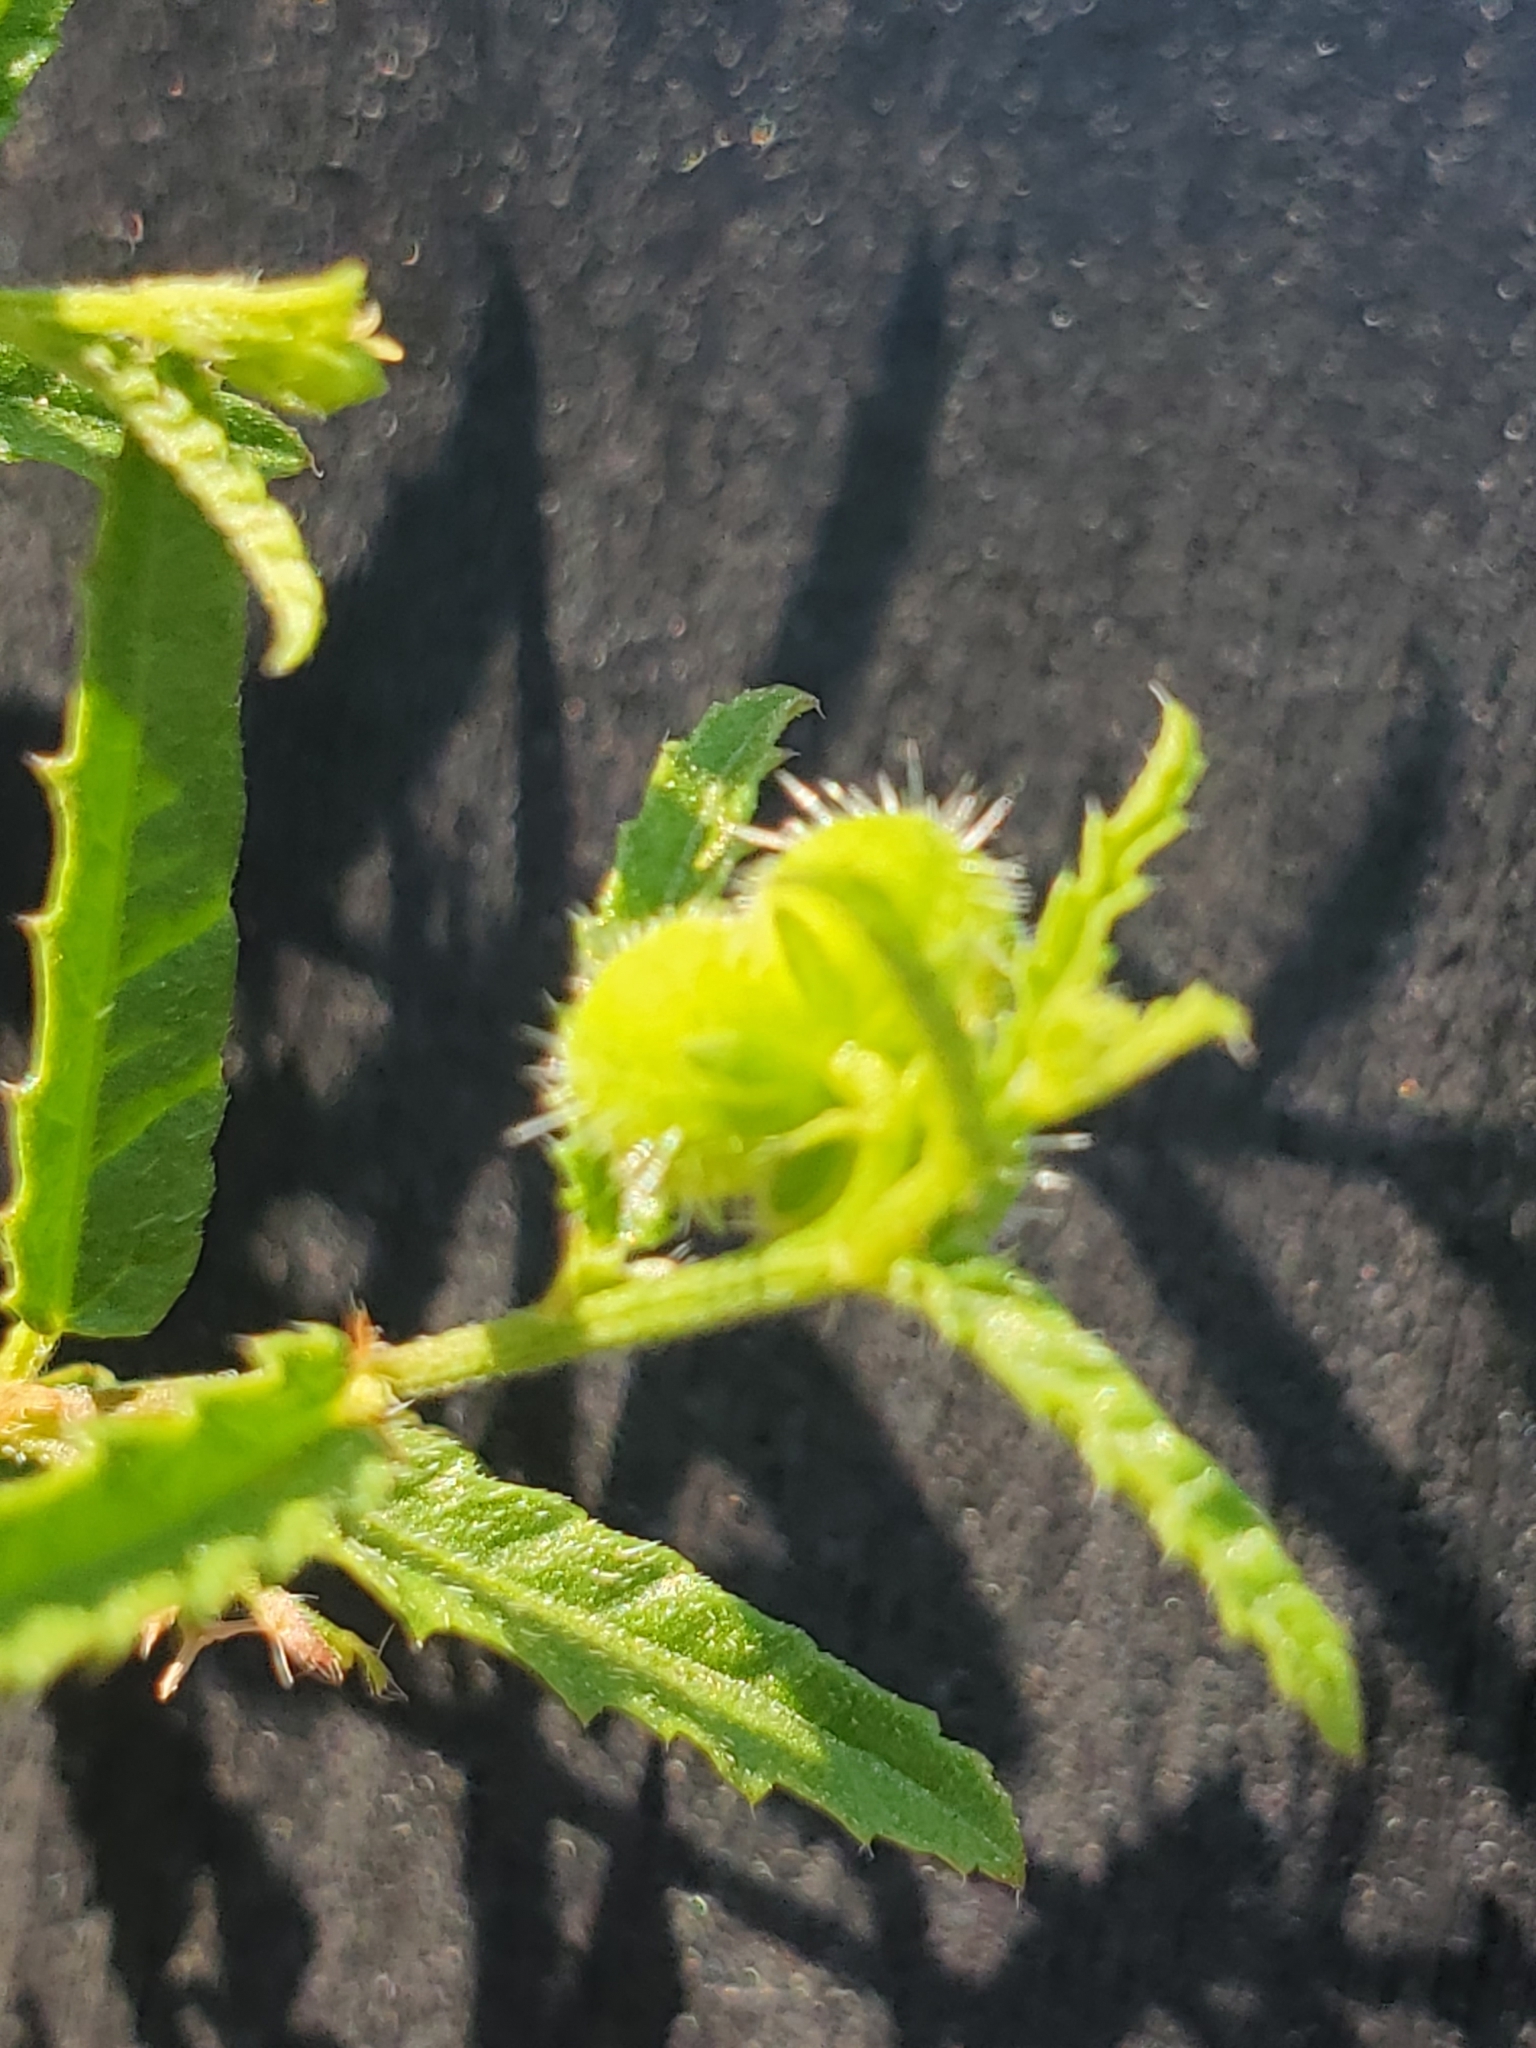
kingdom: Plantae
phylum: Tracheophyta
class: Magnoliopsida
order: Malpighiales
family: Euphorbiaceae
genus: Tragia
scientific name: Tragia ramosa
